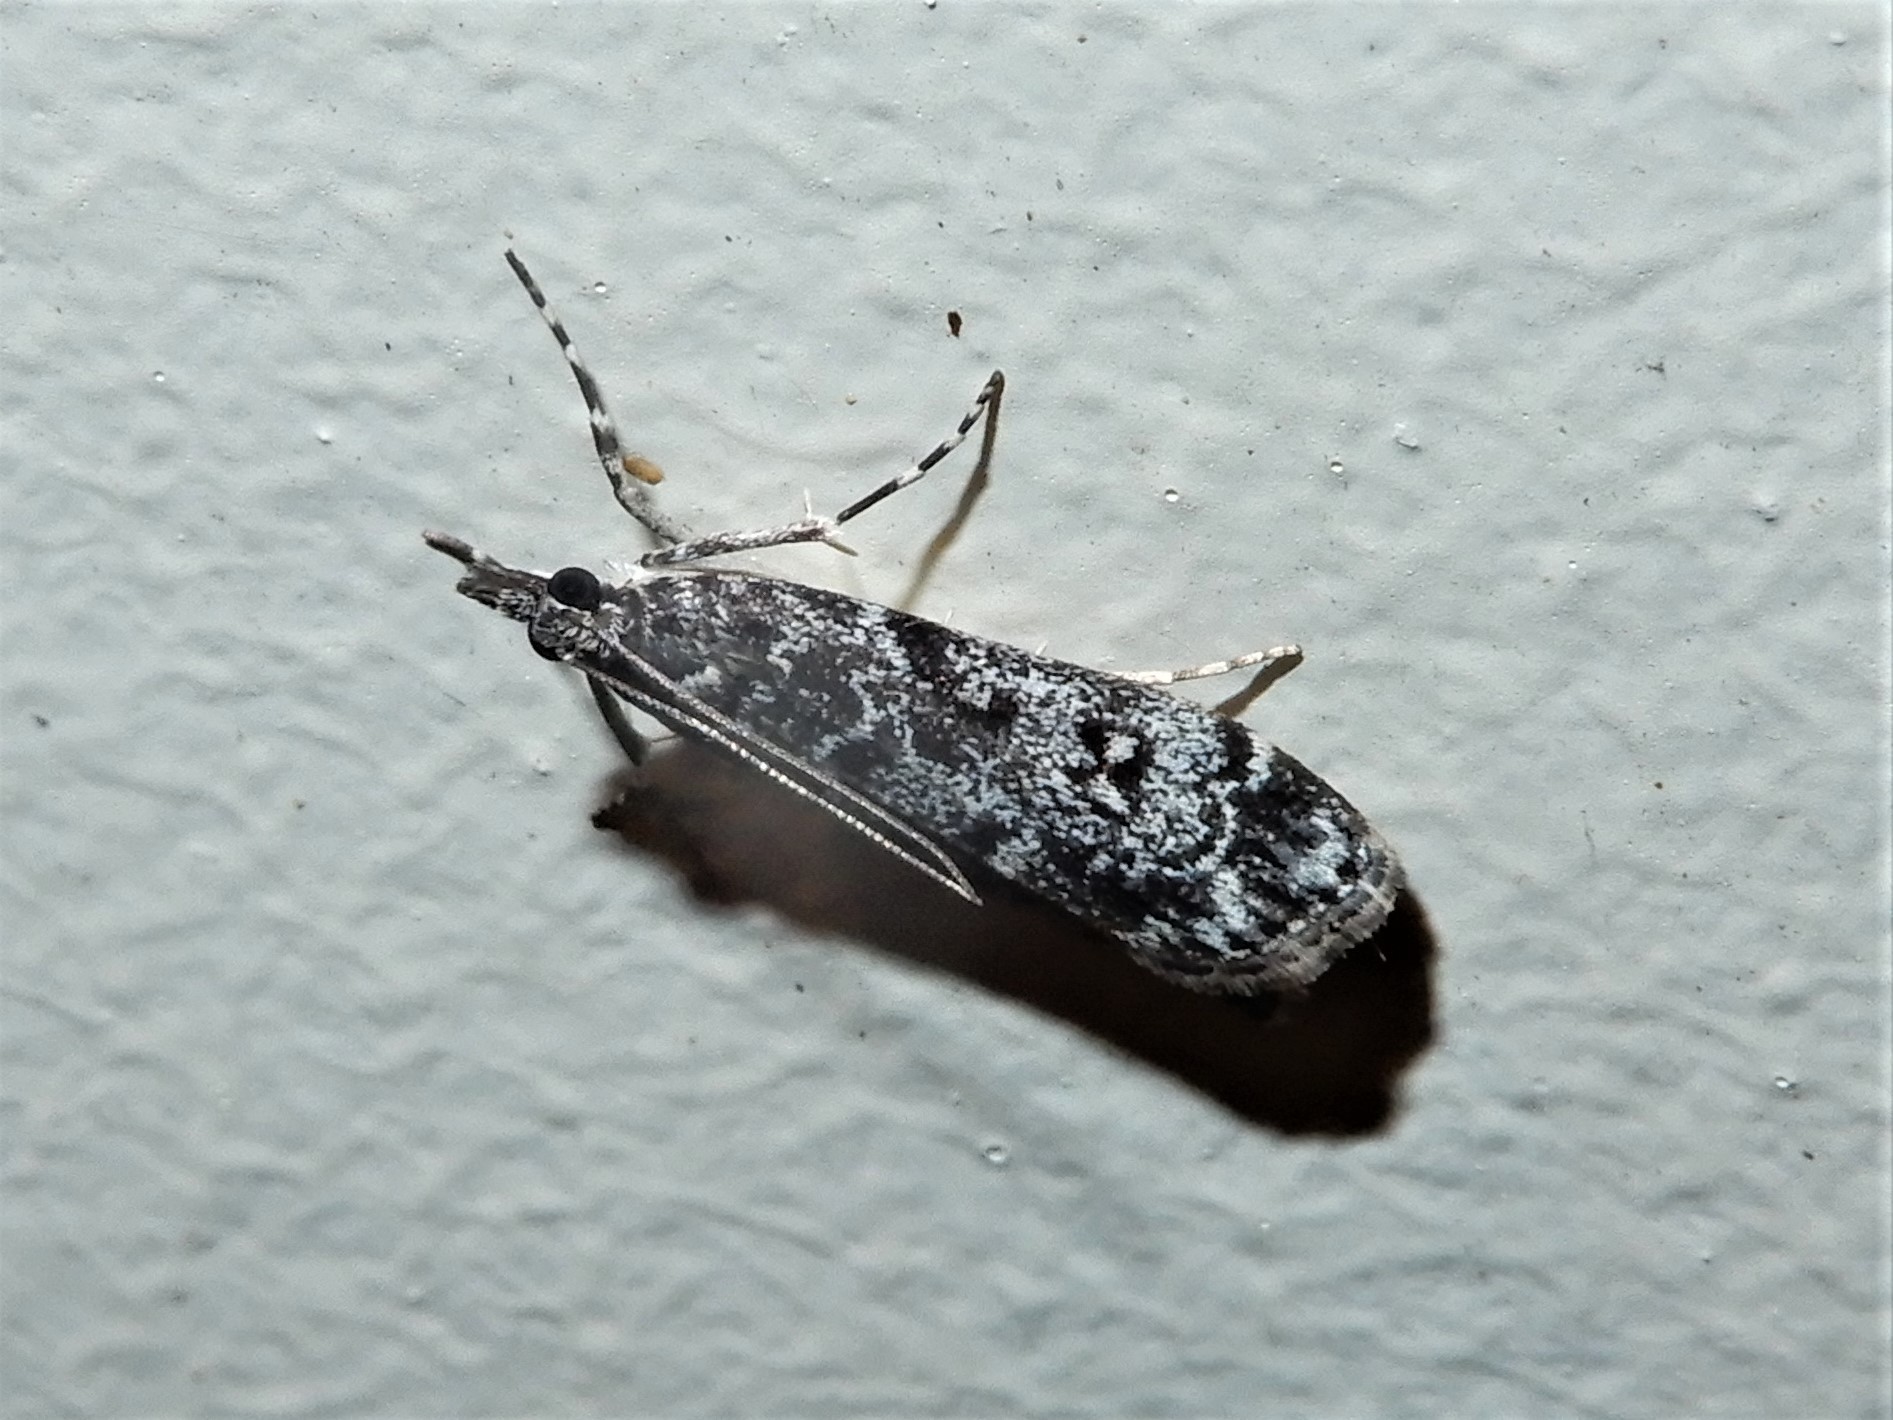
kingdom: Animalia
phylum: Arthropoda
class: Insecta
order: Lepidoptera
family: Crambidae
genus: Eudonia
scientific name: Eudonia philerga
